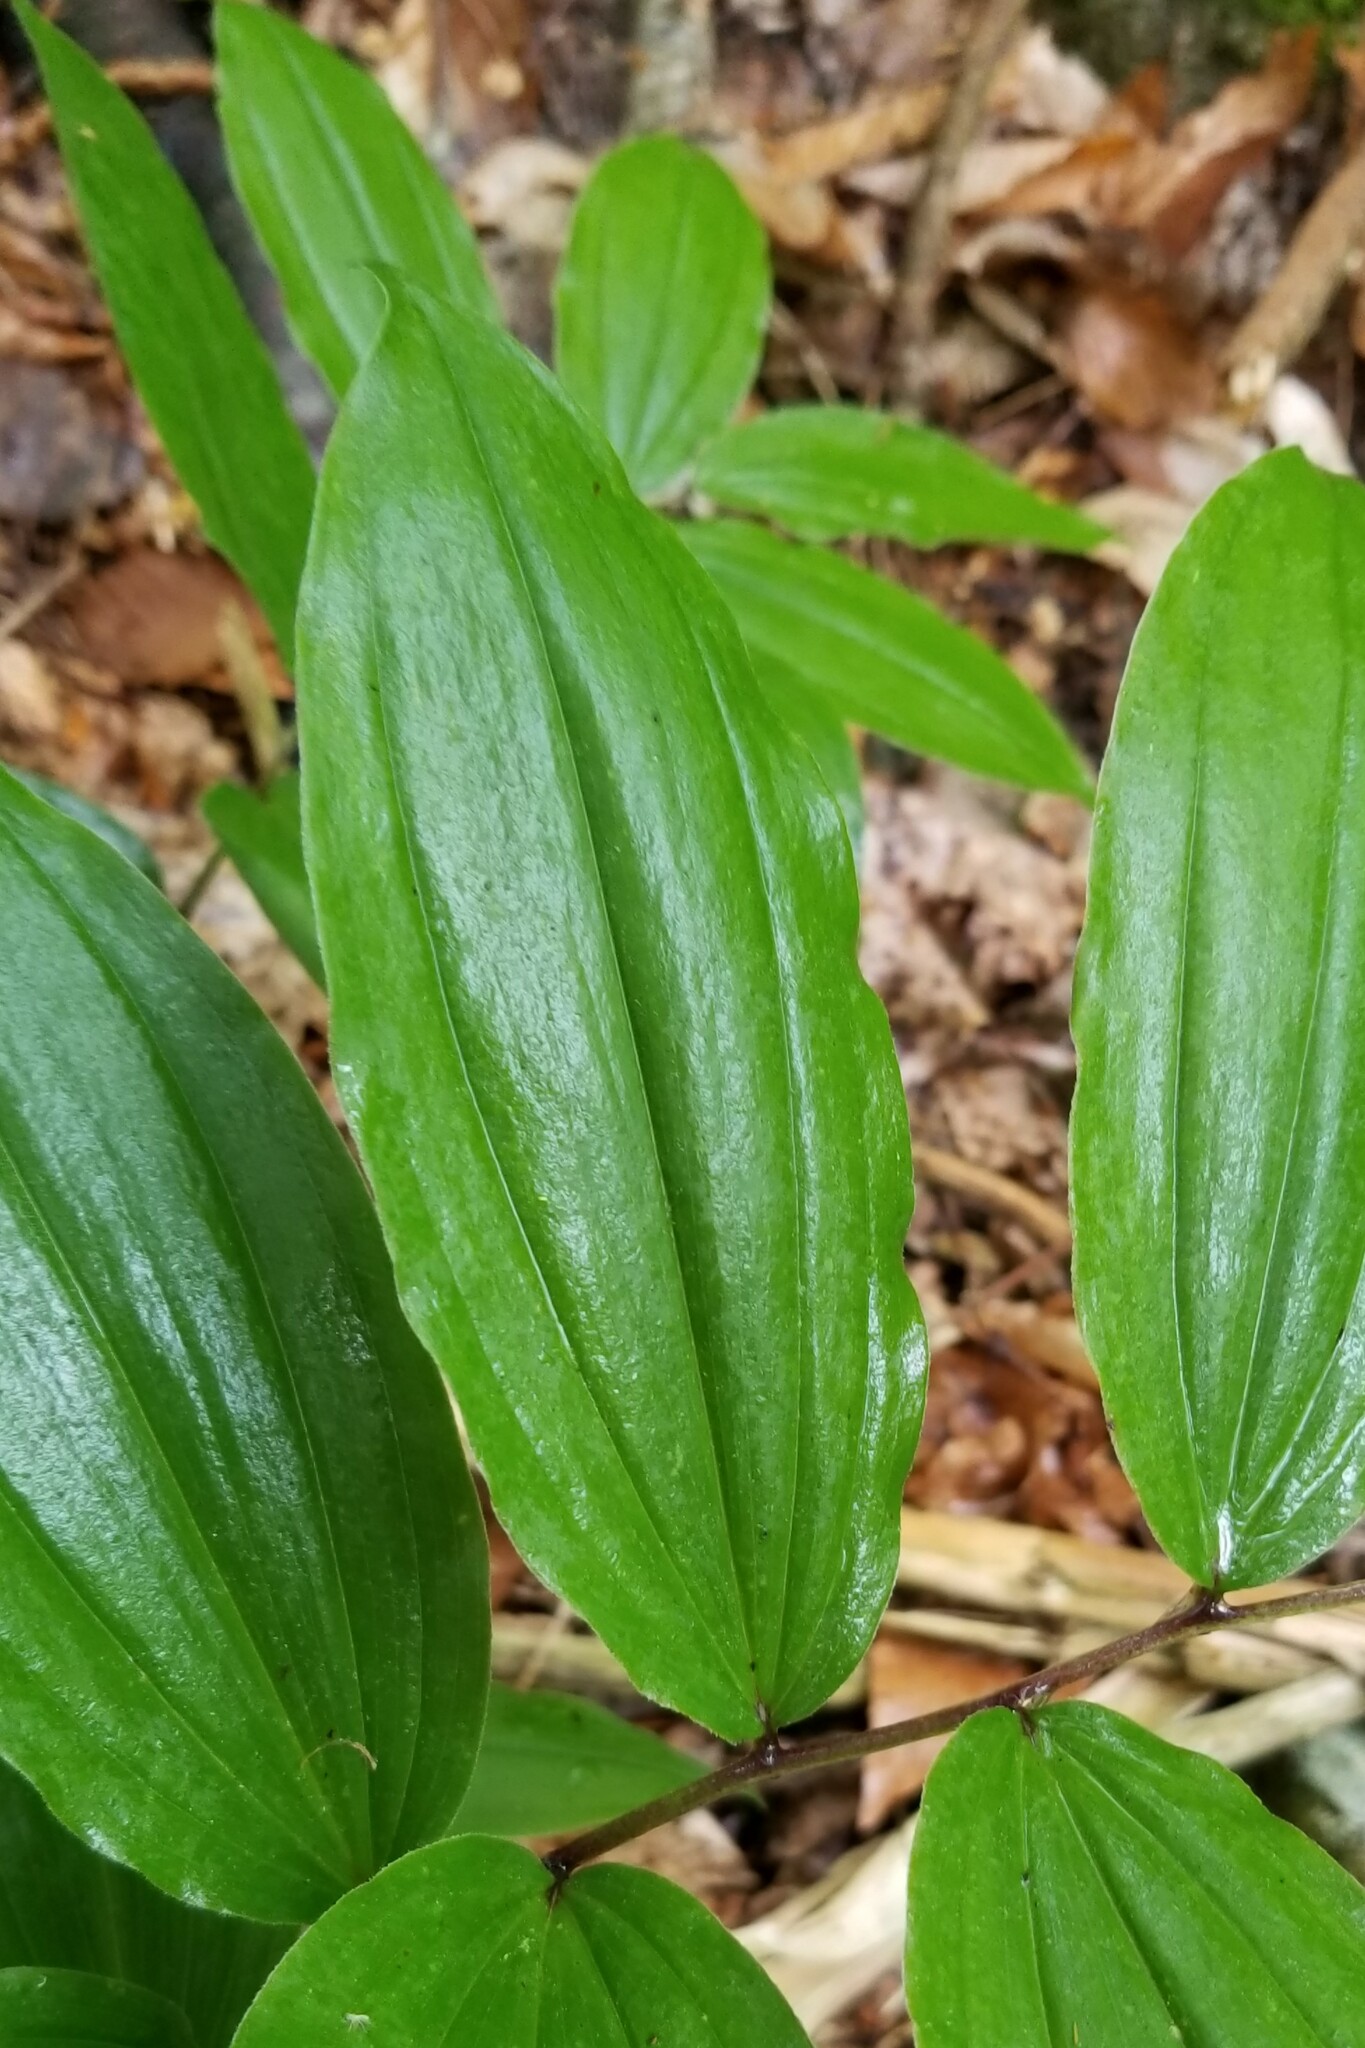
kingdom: Plantae
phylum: Tracheophyta
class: Liliopsida
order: Asparagales
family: Asparagaceae
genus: Maianthemum
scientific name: Maianthemum racemosum
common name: False spikenard
